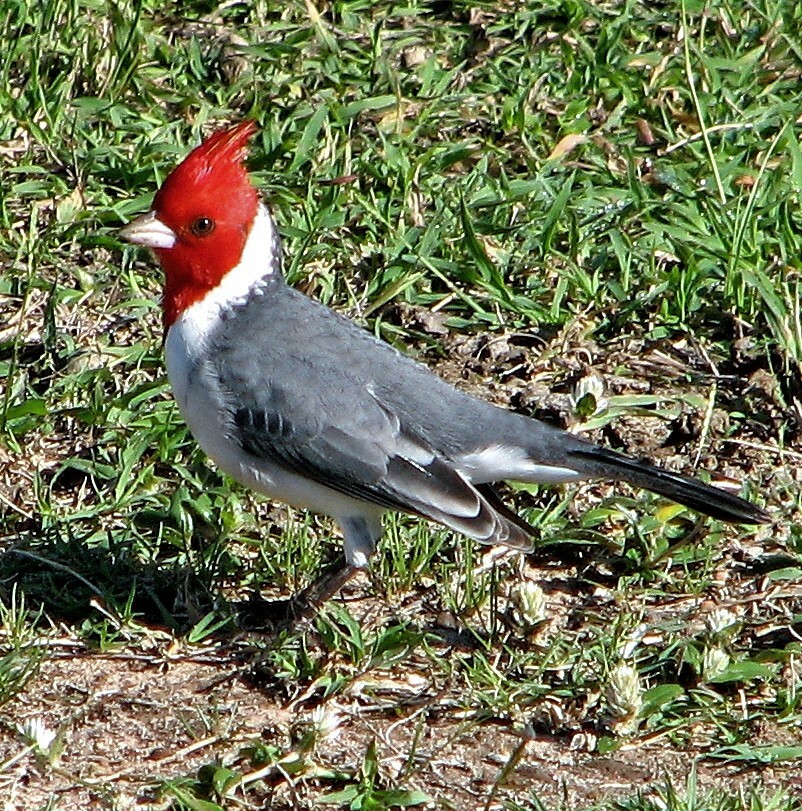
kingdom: Animalia
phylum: Chordata
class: Aves
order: Passeriformes
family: Thraupidae
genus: Paroaria
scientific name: Paroaria coronata
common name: Red-crested cardinal
